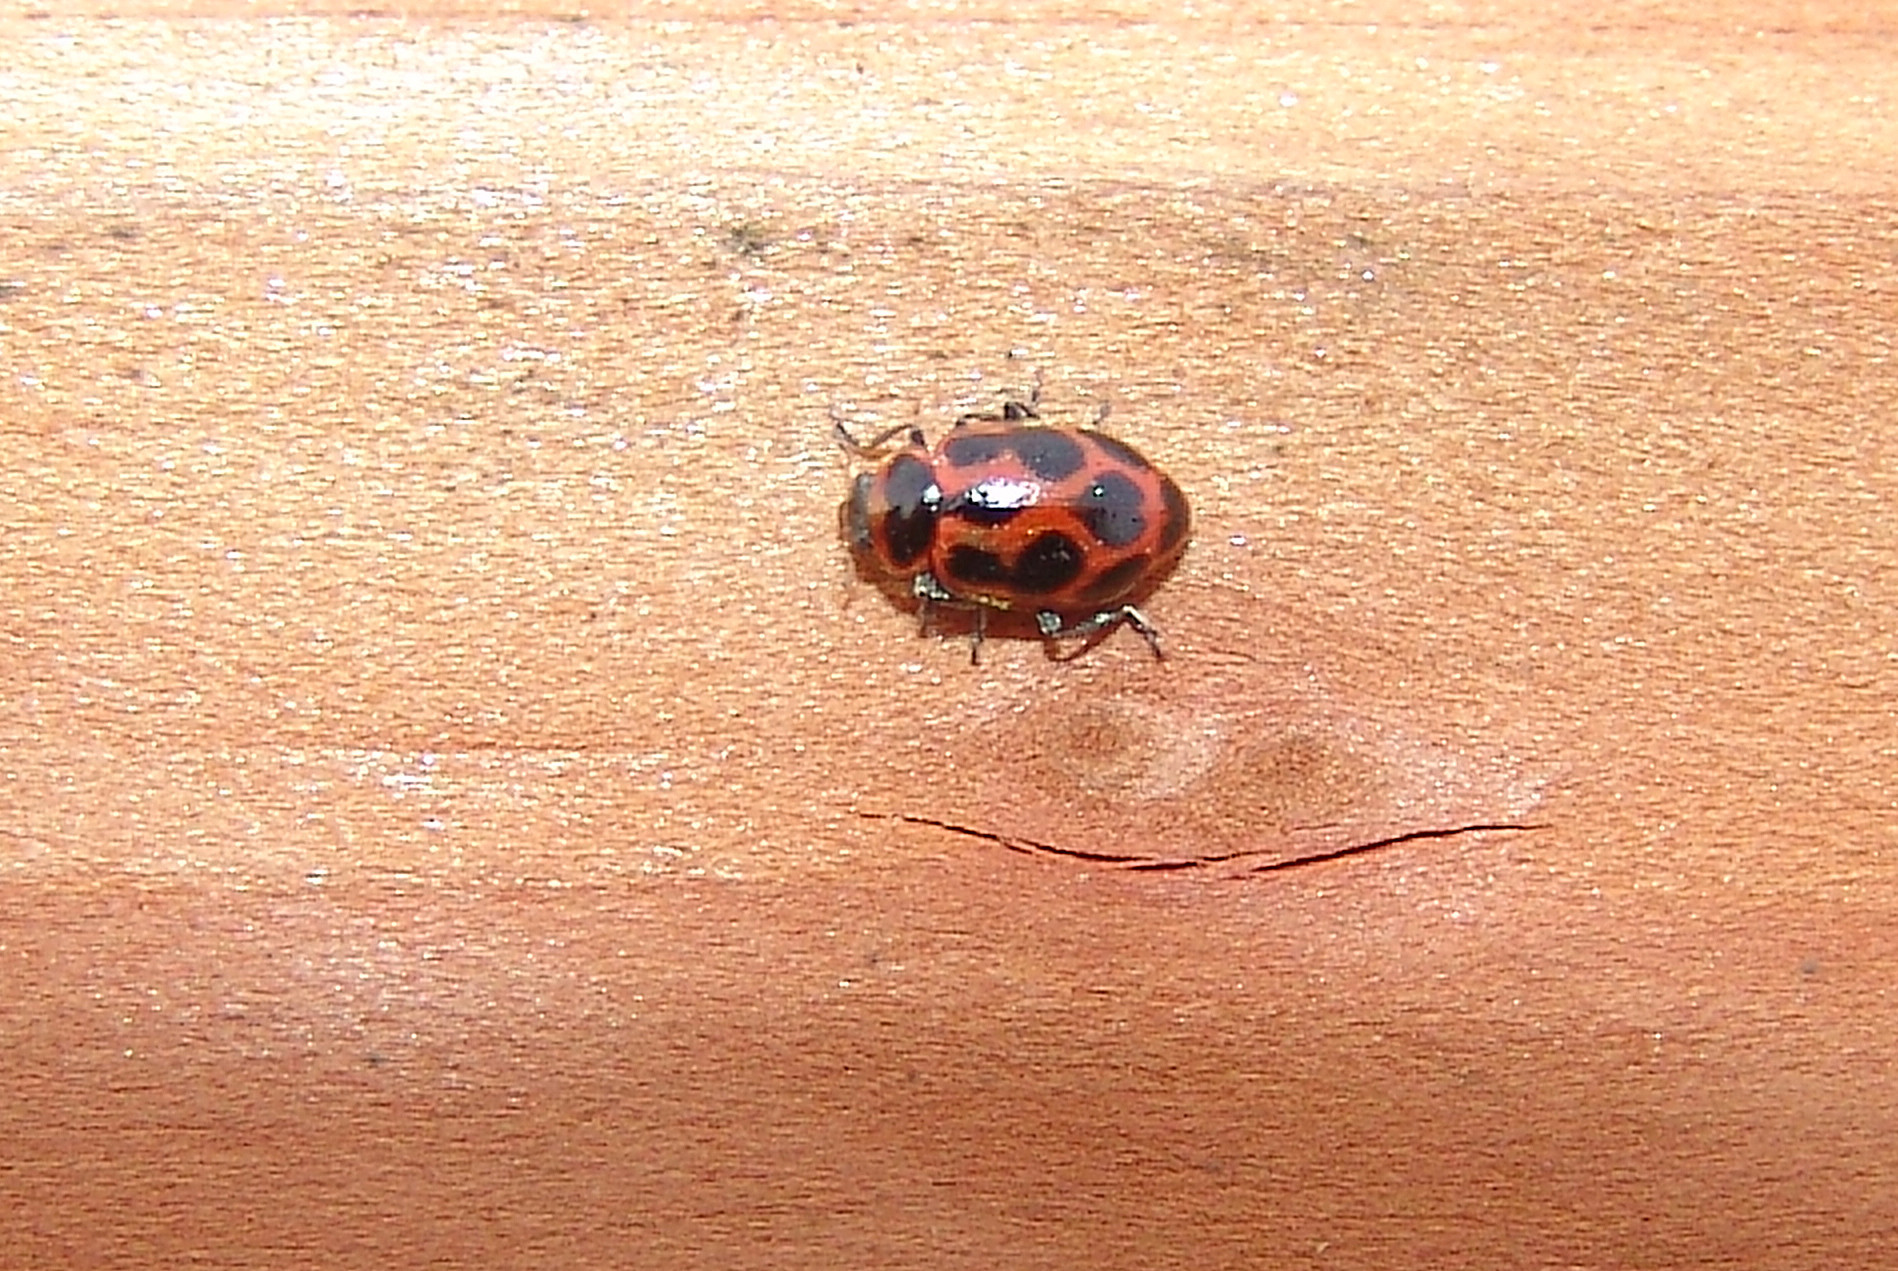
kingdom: Animalia
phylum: Arthropoda
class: Insecta
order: Coleoptera
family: Coccinellidae
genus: Naemia
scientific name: Naemia seriata
